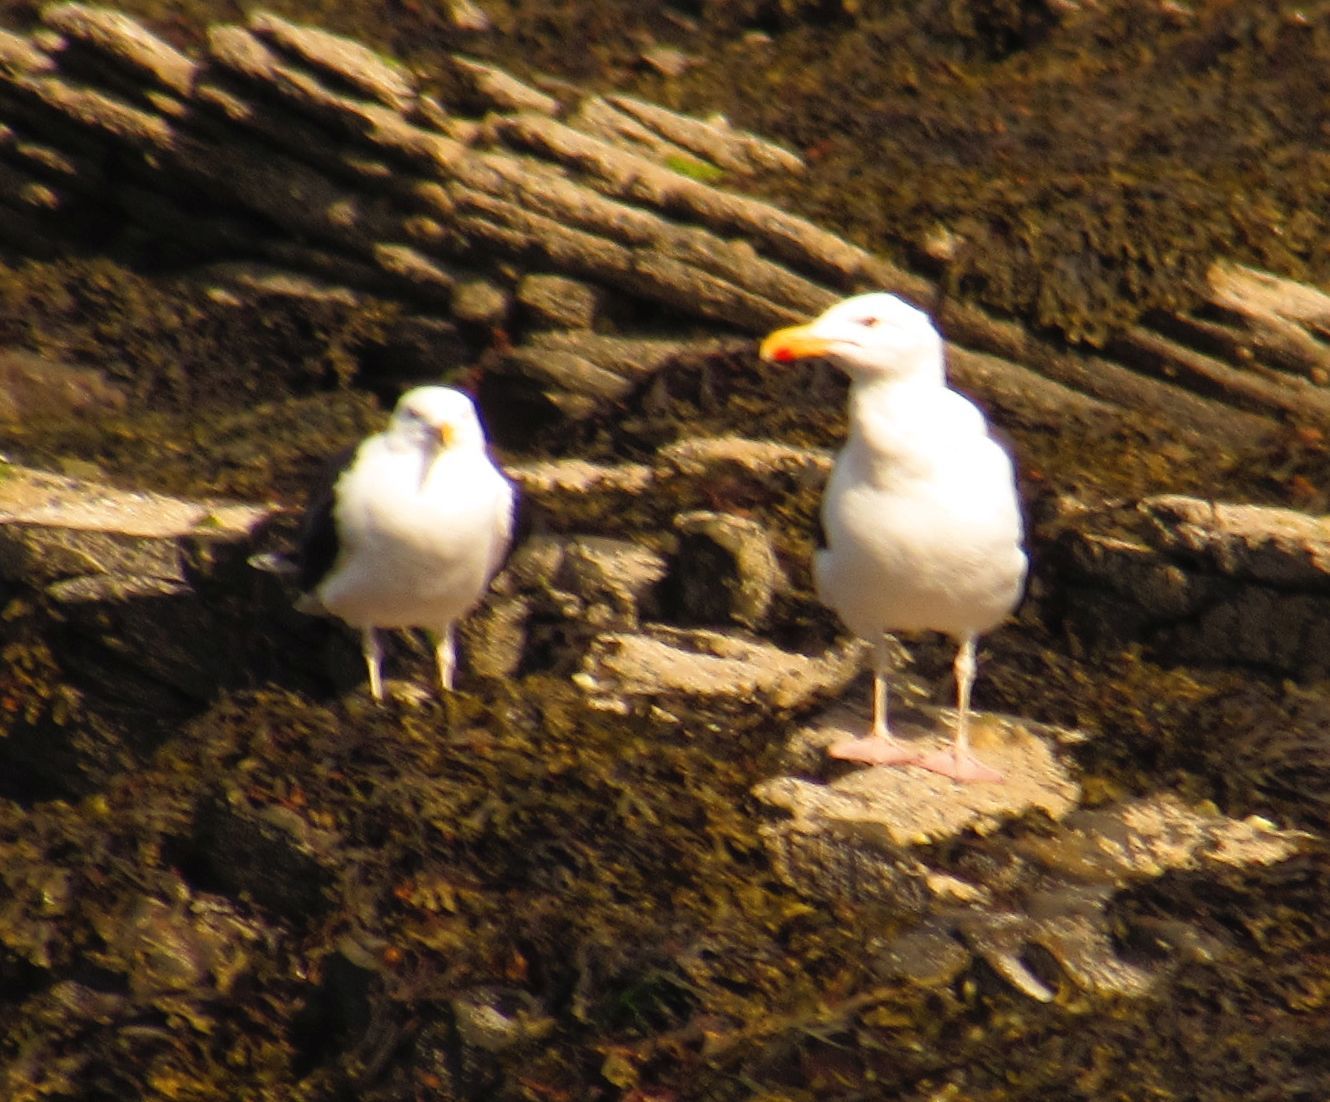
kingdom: Animalia
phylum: Chordata
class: Aves
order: Charadriiformes
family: Laridae
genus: Larus
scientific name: Larus marinus
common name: Great black-backed gull
